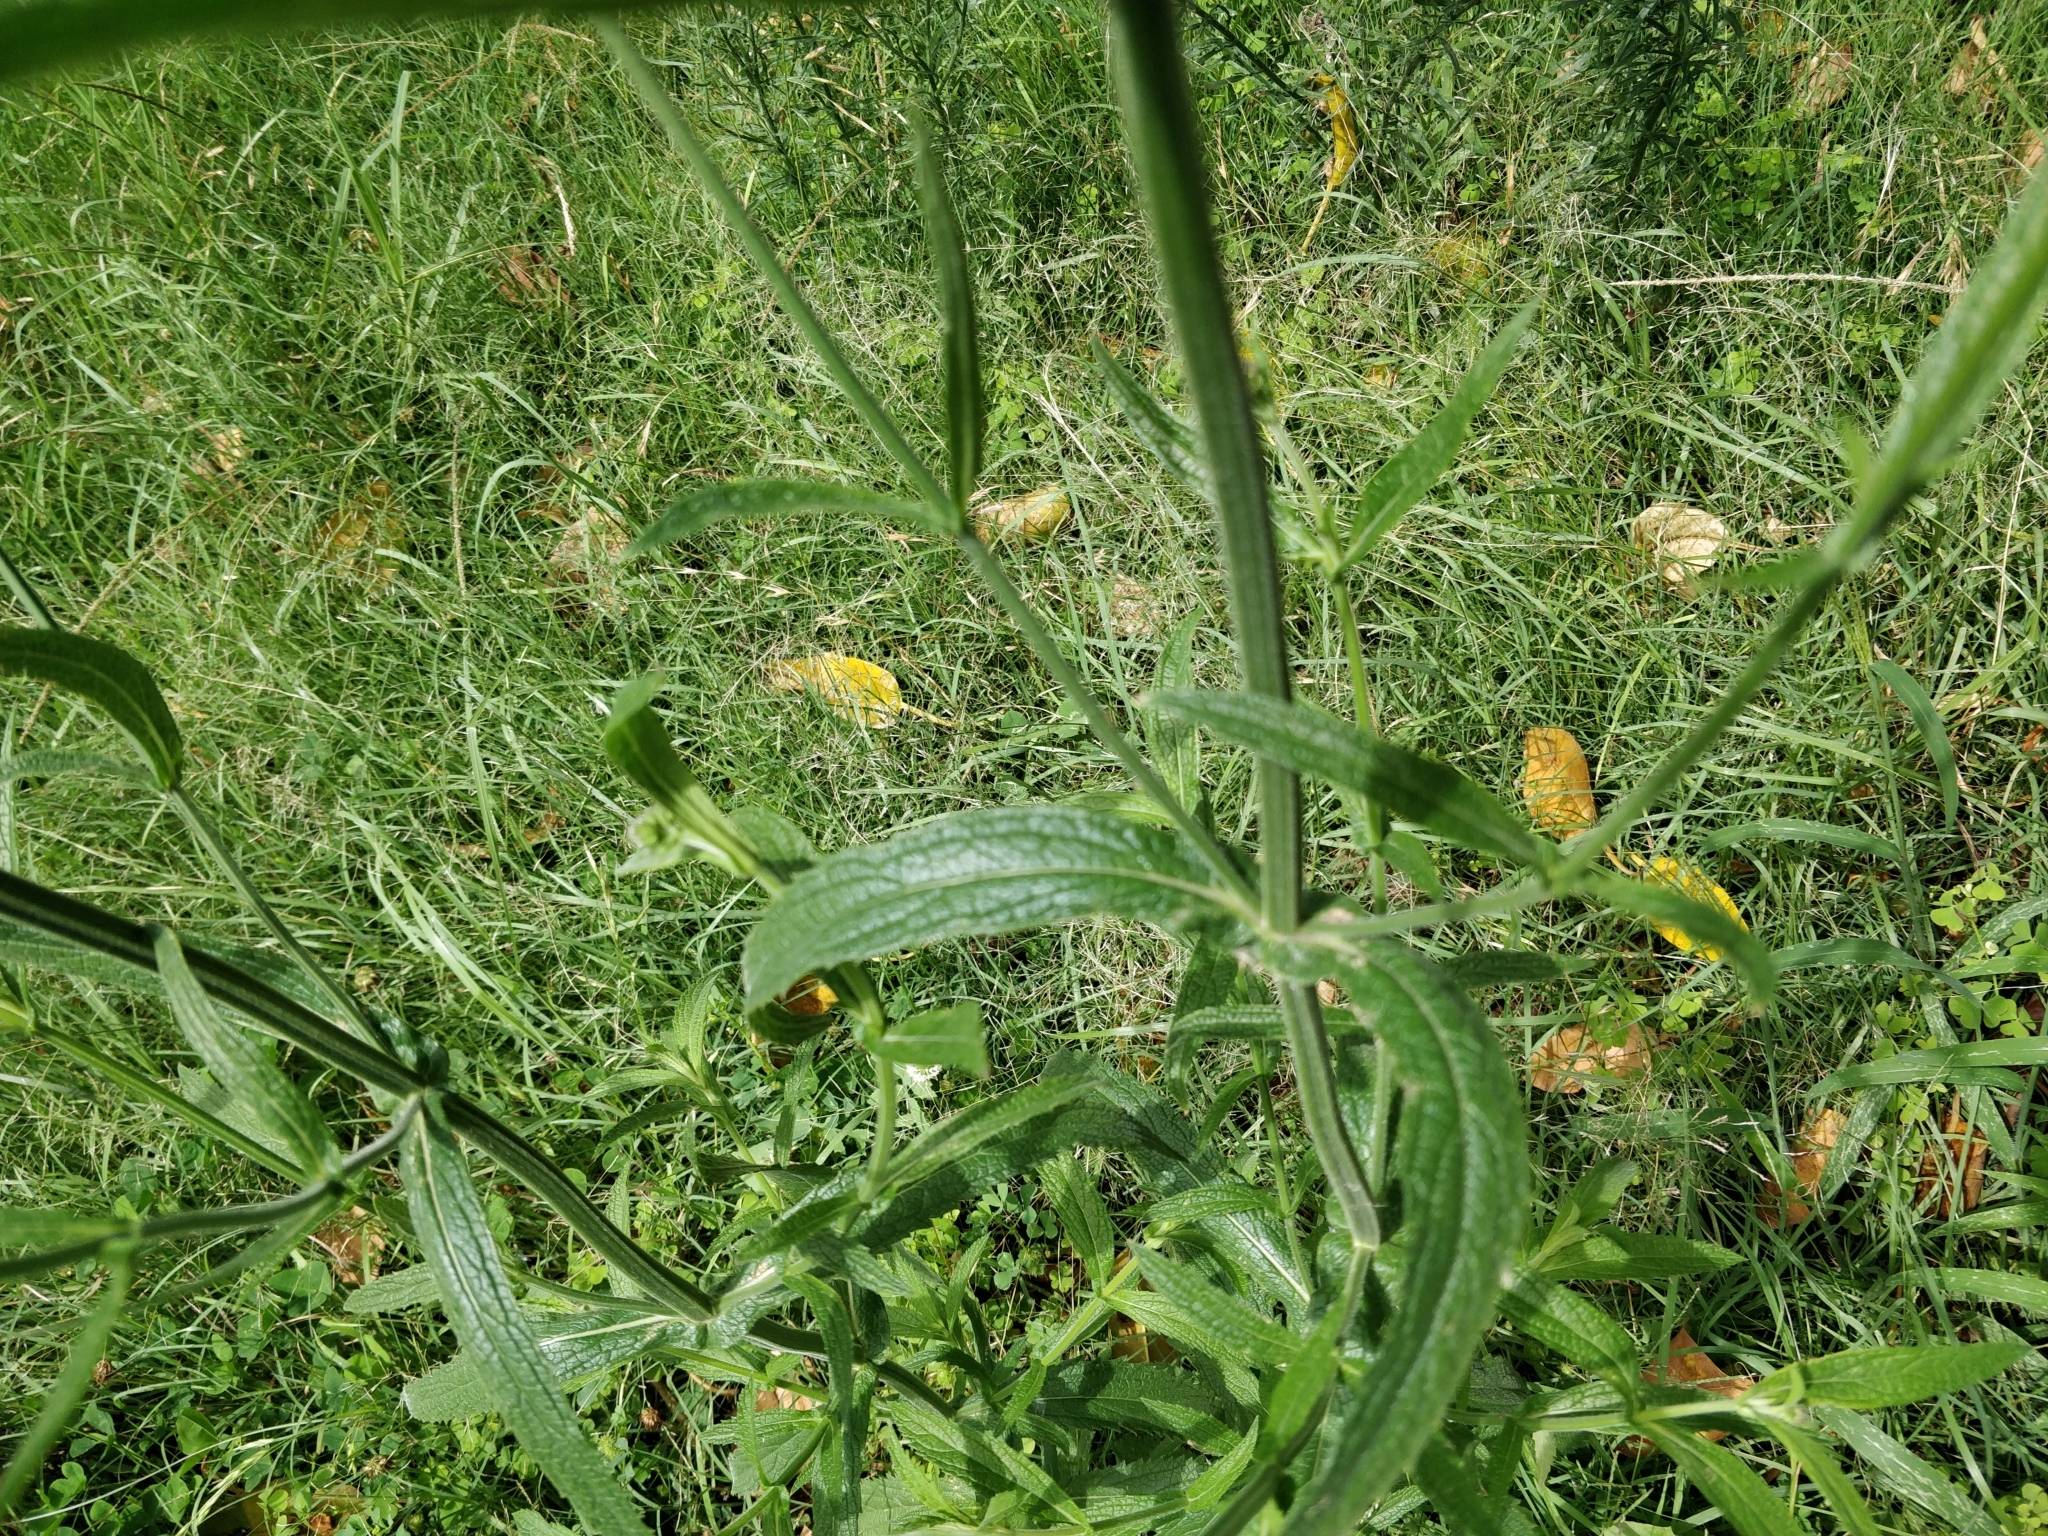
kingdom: Plantae
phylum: Tracheophyta
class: Magnoliopsida
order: Lamiales
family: Verbenaceae
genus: Verbena
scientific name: Verbena bonariensis
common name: Purpletop vervain
